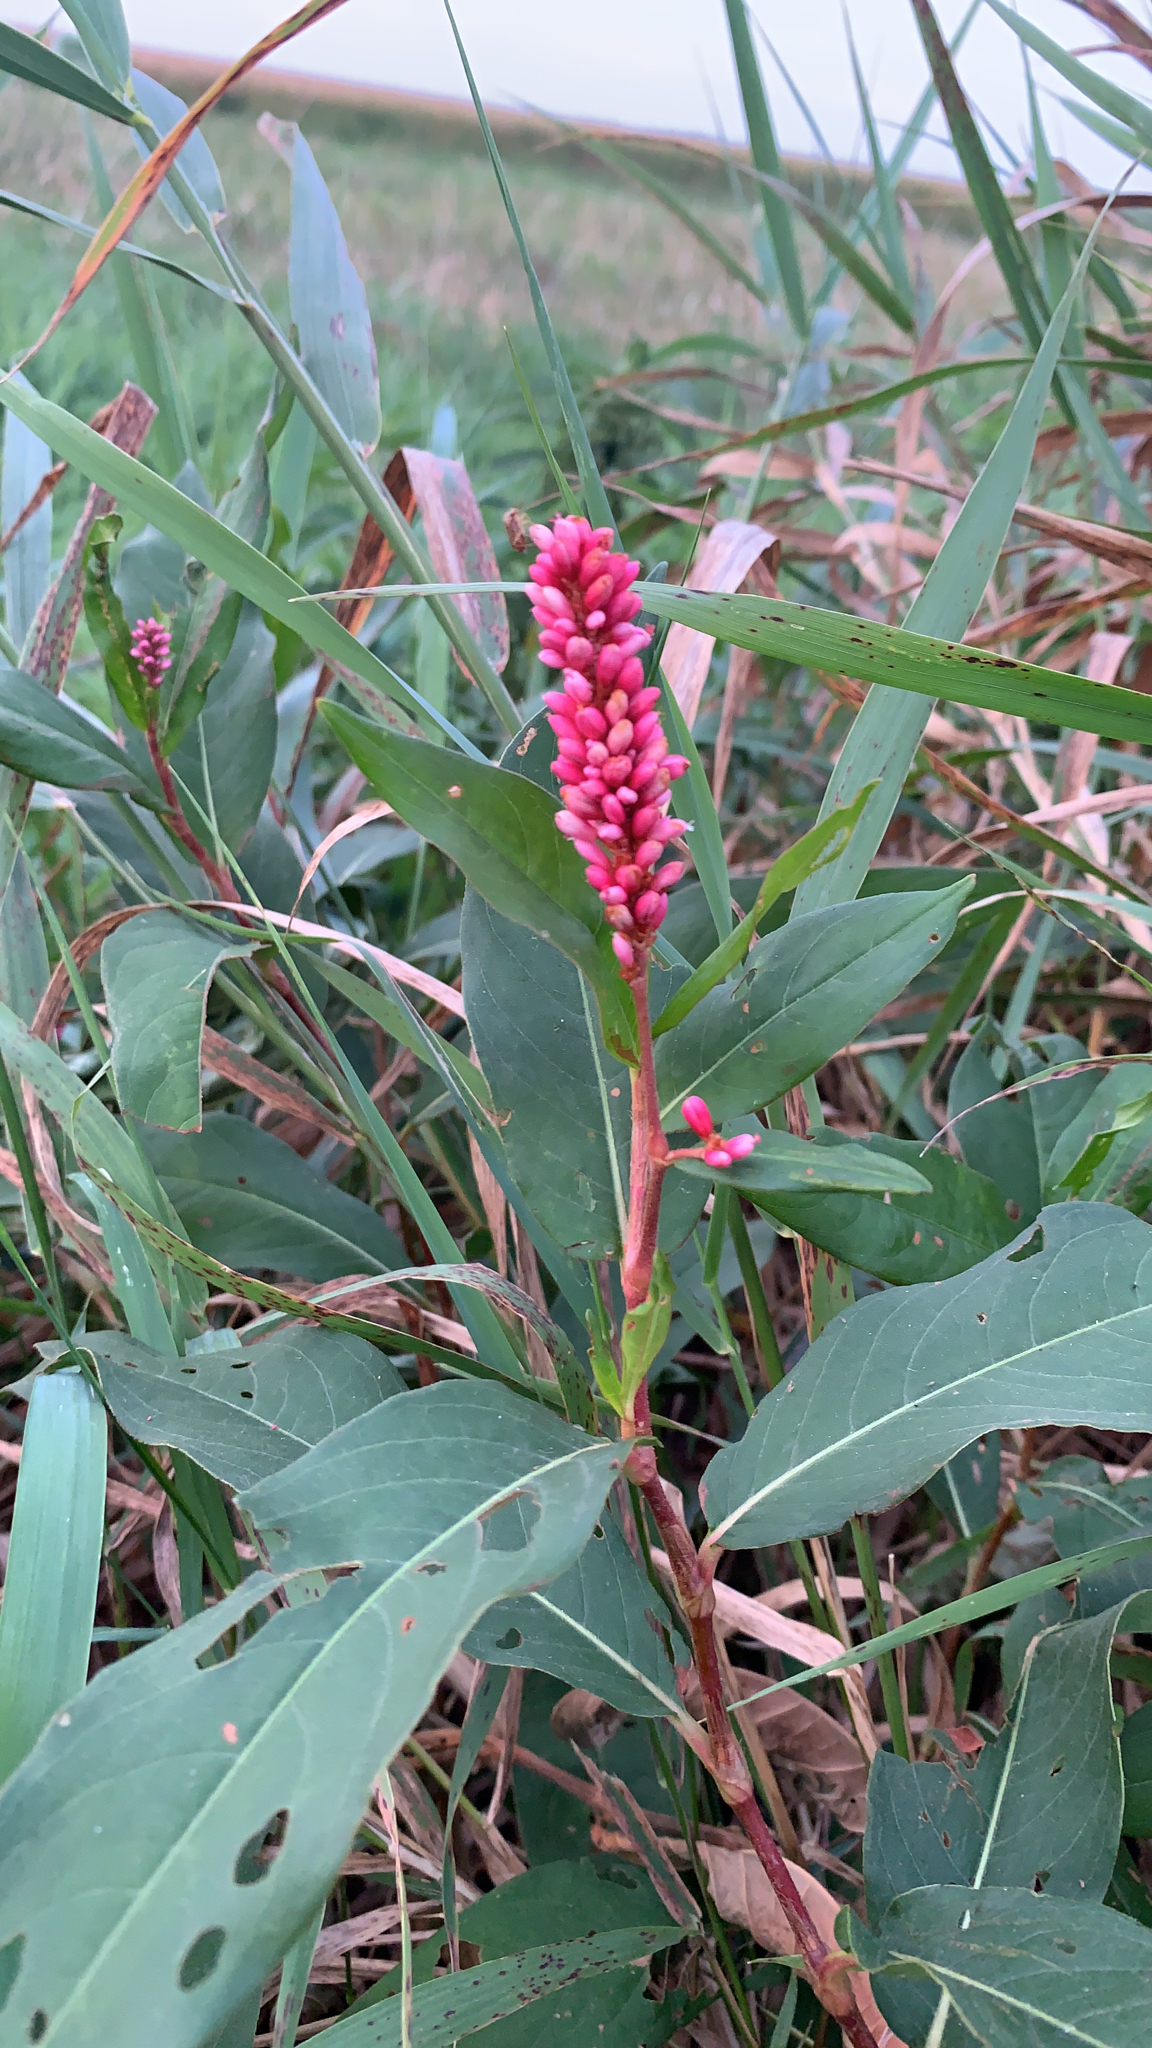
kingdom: Plantae
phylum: Tracheophyta
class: Magnoliopsida
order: Caryophyllales
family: Polygonaceae
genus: Persicaria
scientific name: Persicaria amphibia
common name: Amphibious bistort
